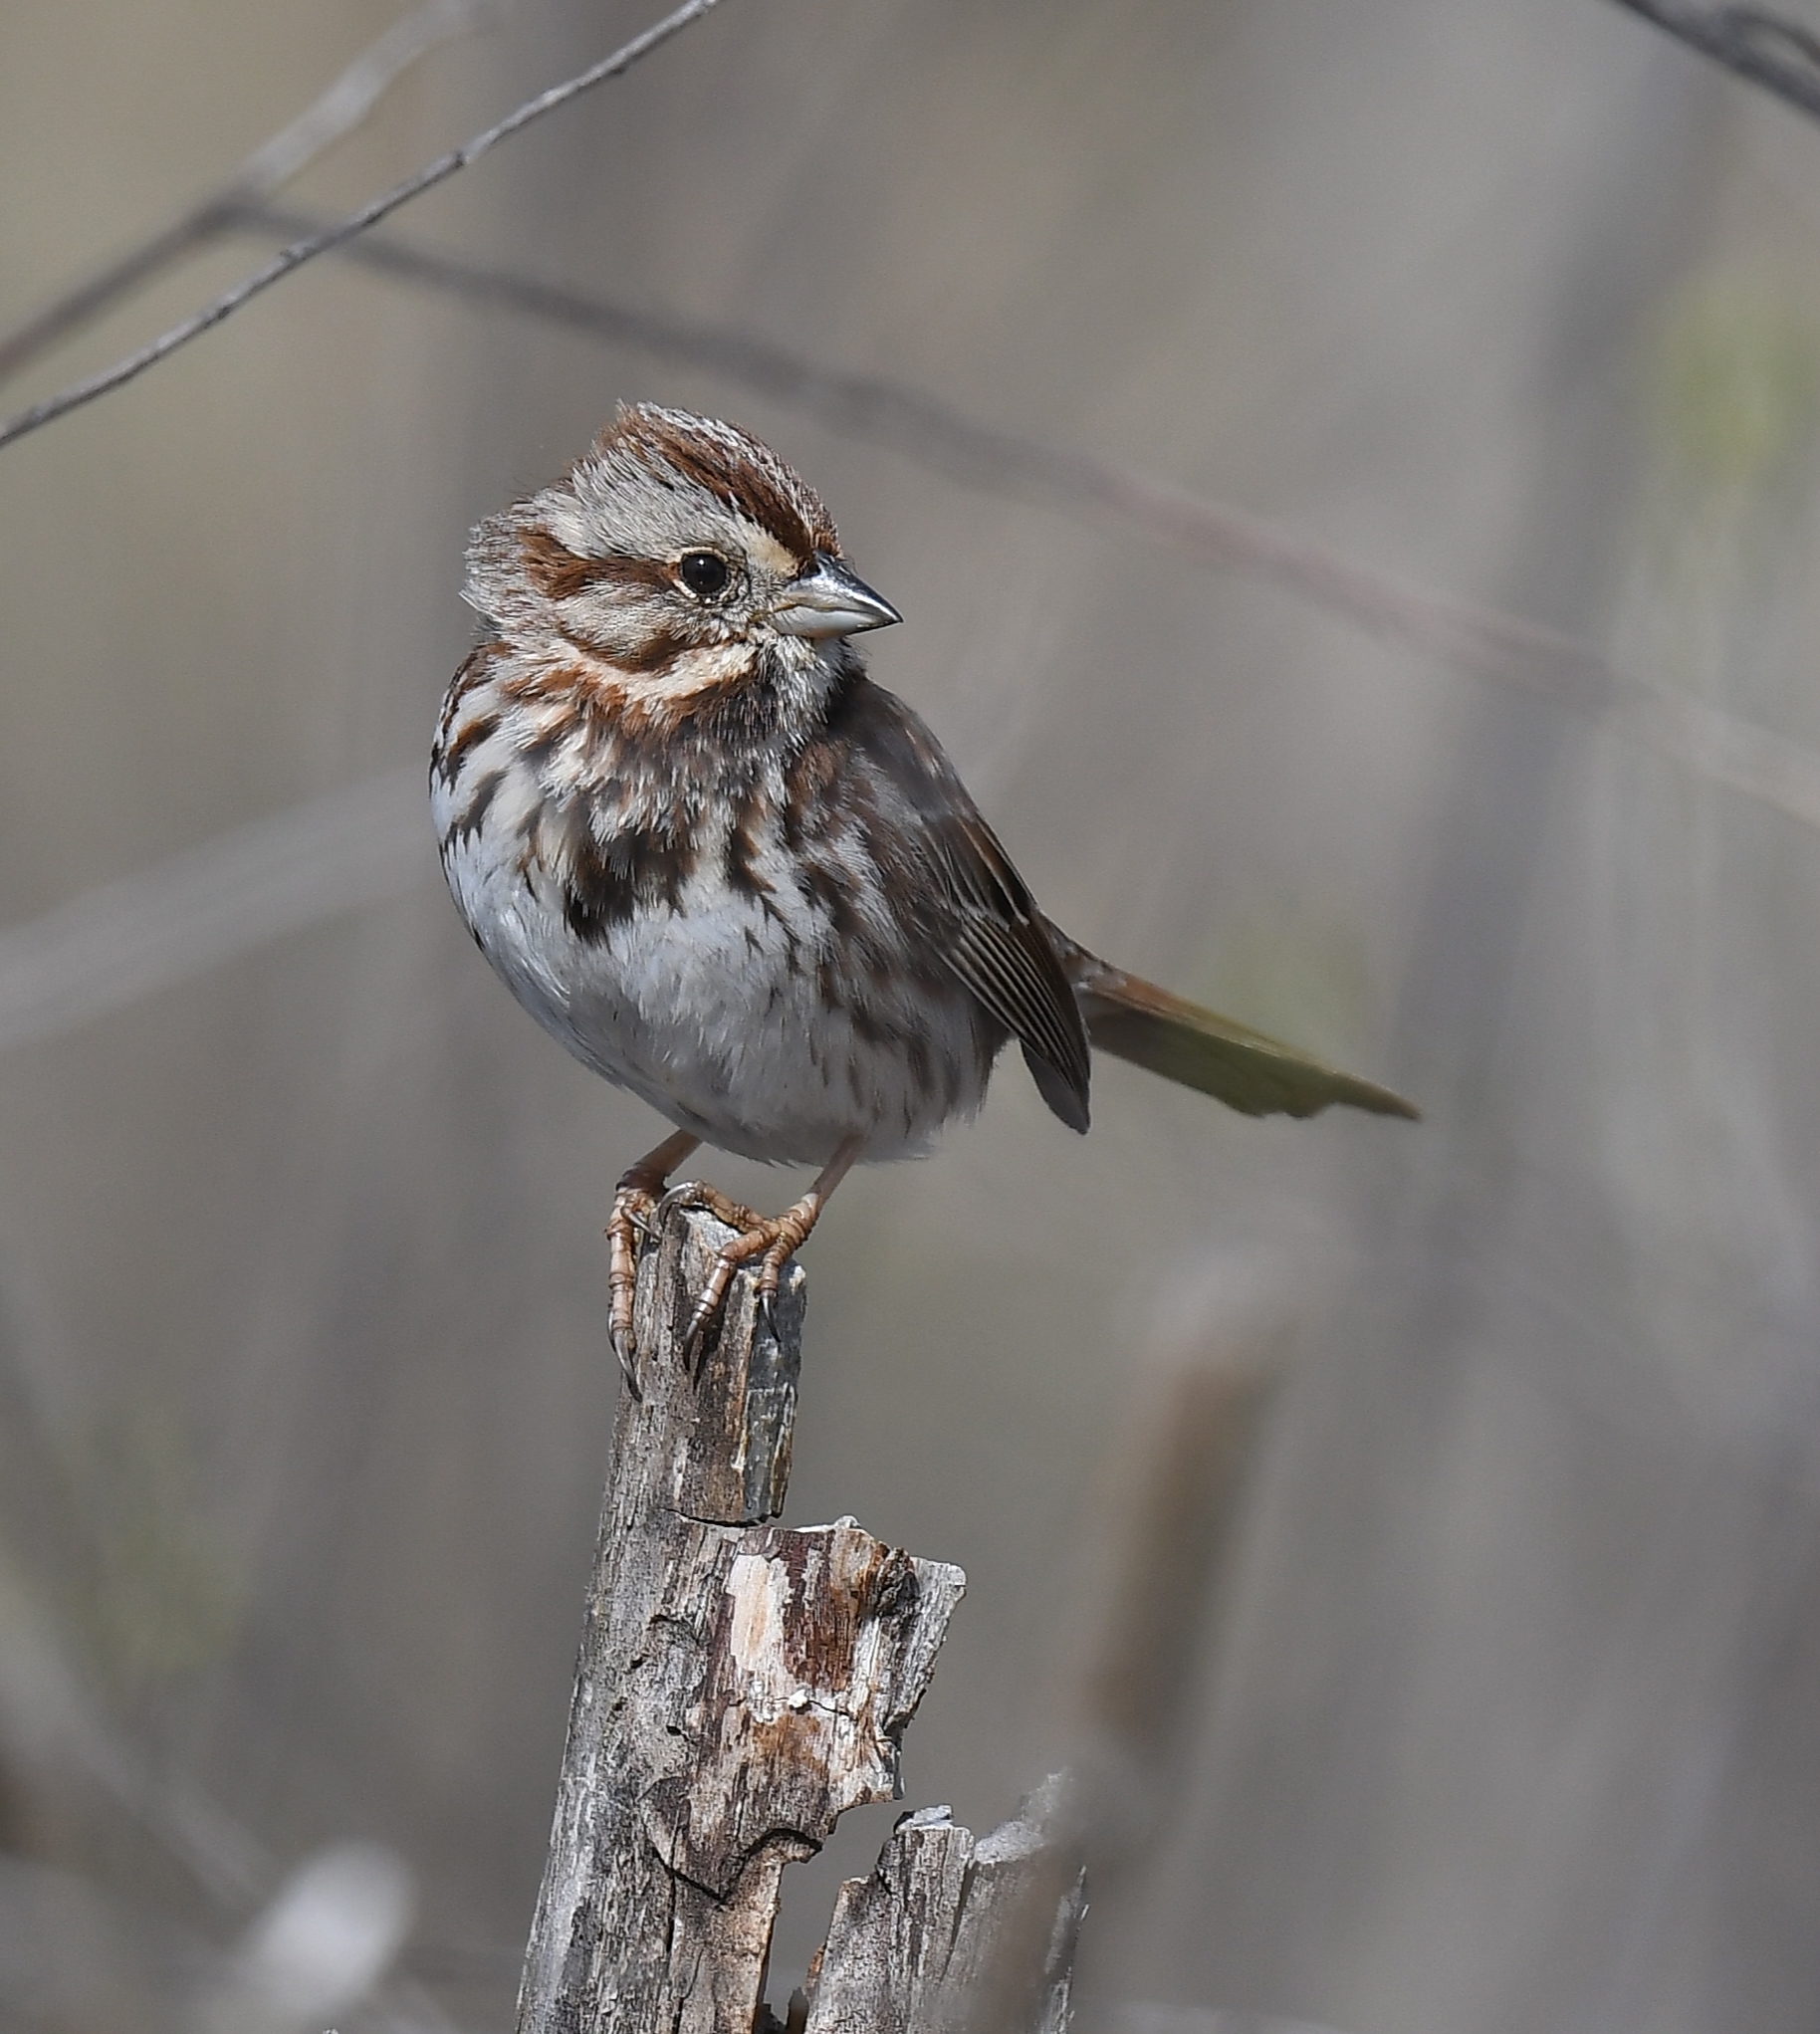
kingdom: Animalia
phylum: Chordata
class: Aves
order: Passeriformes
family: Passerellidae
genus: Melospiza
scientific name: Melospiza melodia
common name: Song sparrow
